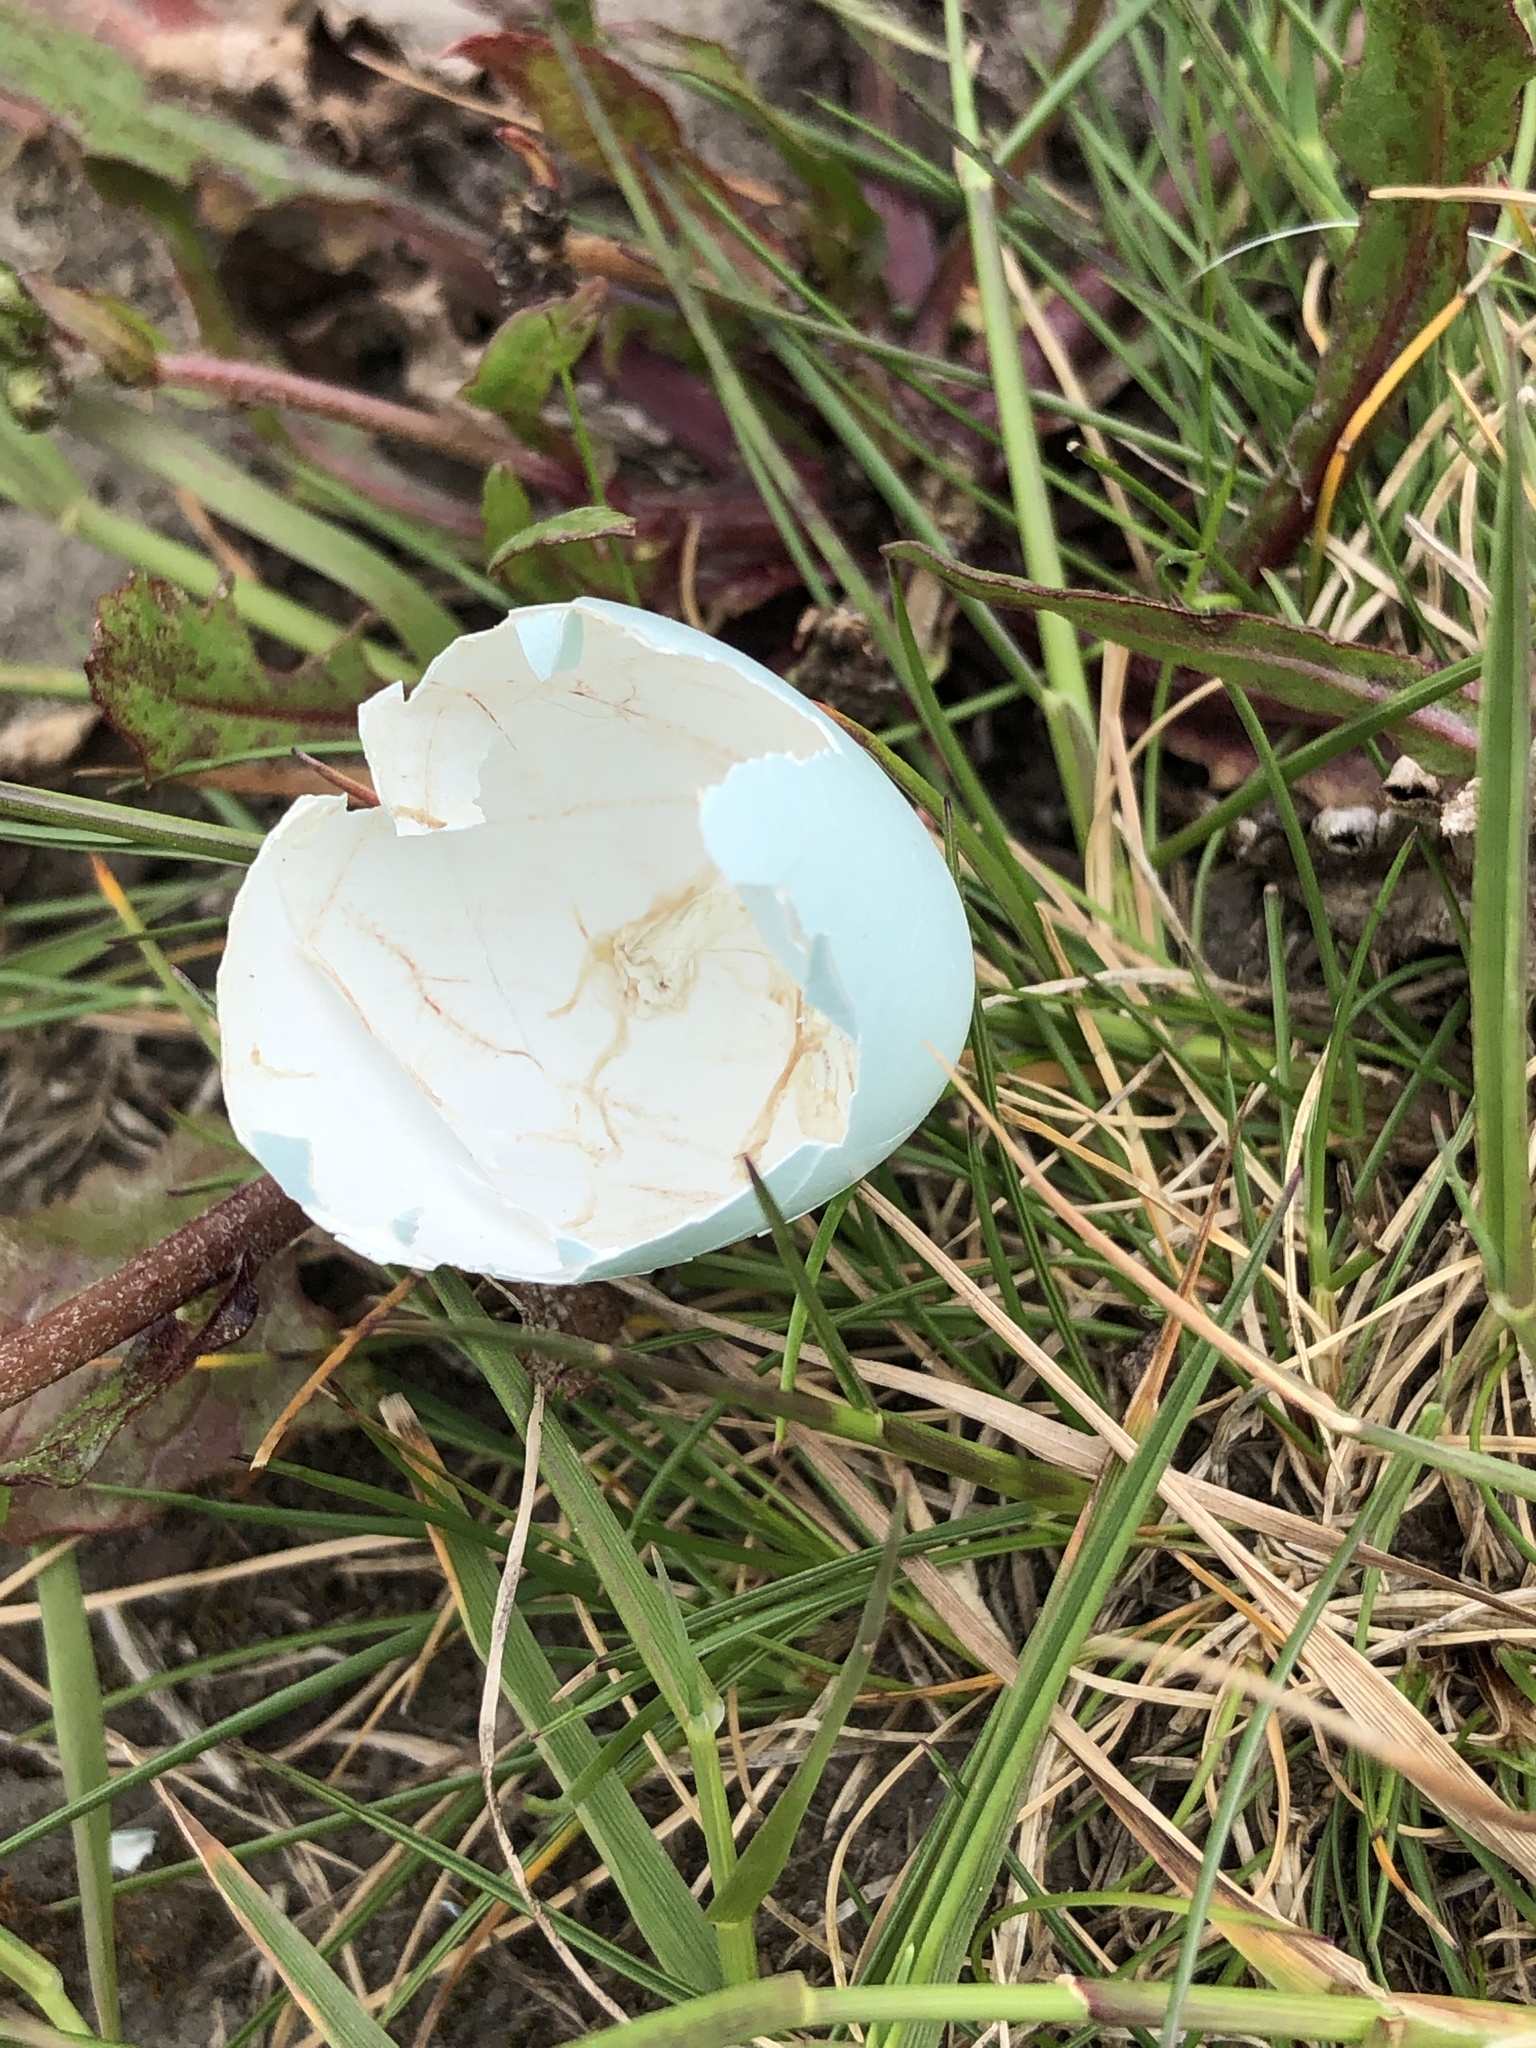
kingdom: Animalia
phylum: Chordata
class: Aves
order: Passeriformes
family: Sturnidae
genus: Sturnus
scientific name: Sturnus vulgaris
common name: Common starling
